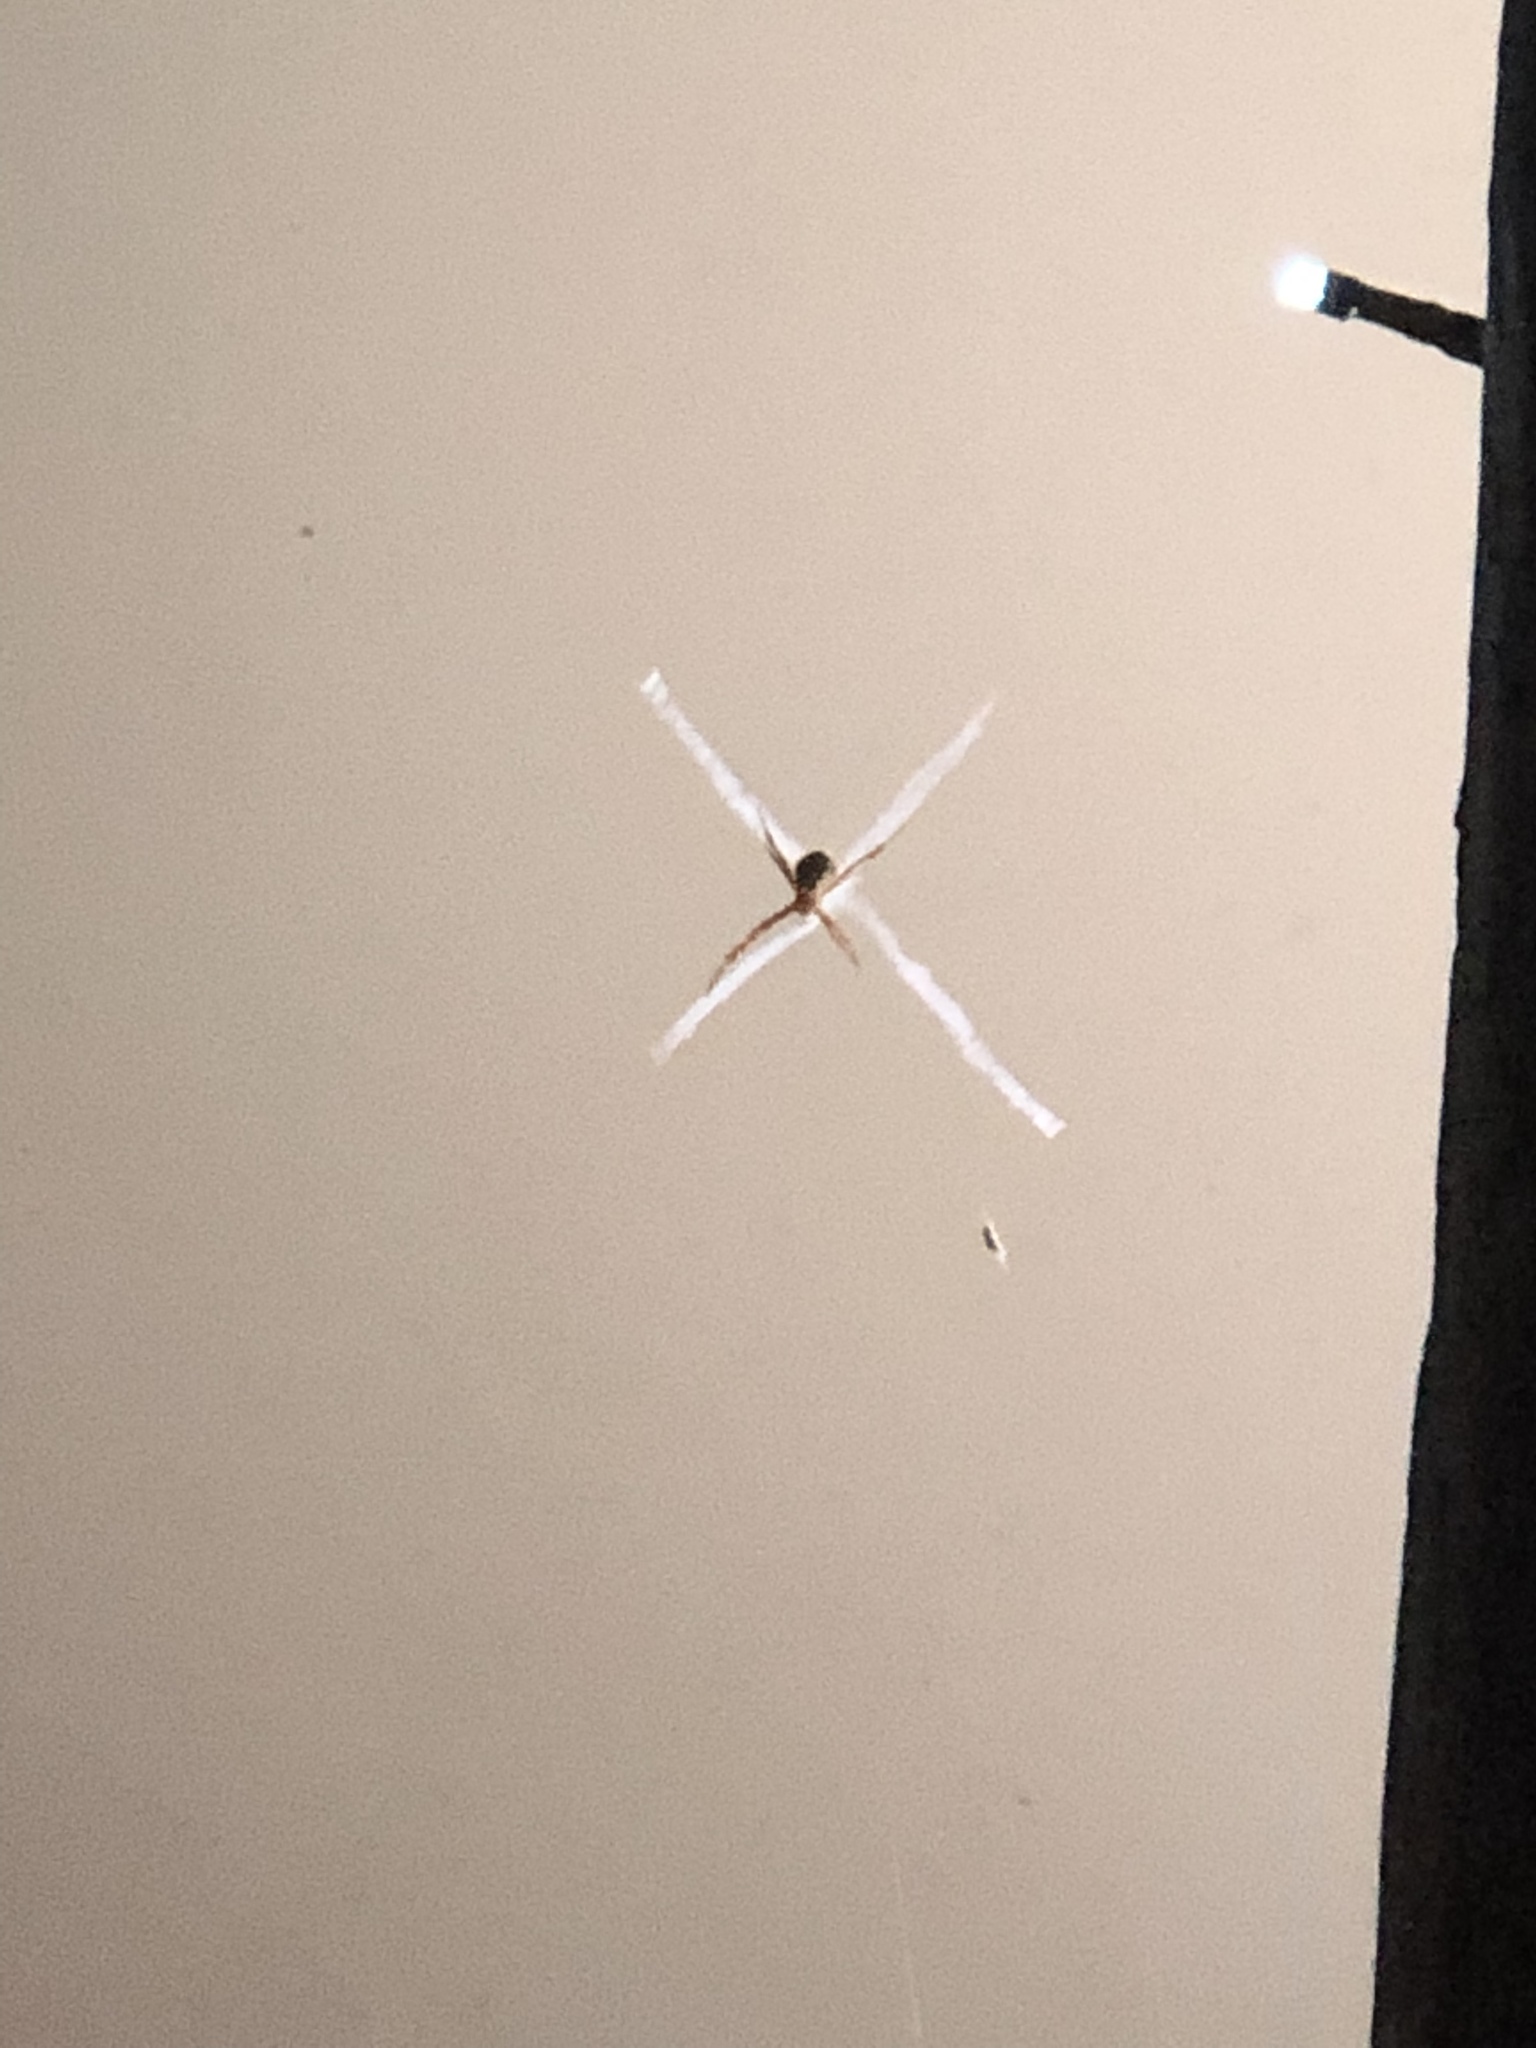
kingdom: Animalia
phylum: Arthropoda
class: Arachnida
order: Araneae
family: Araneidae
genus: Argiope
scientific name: Argiope keyserlingi
